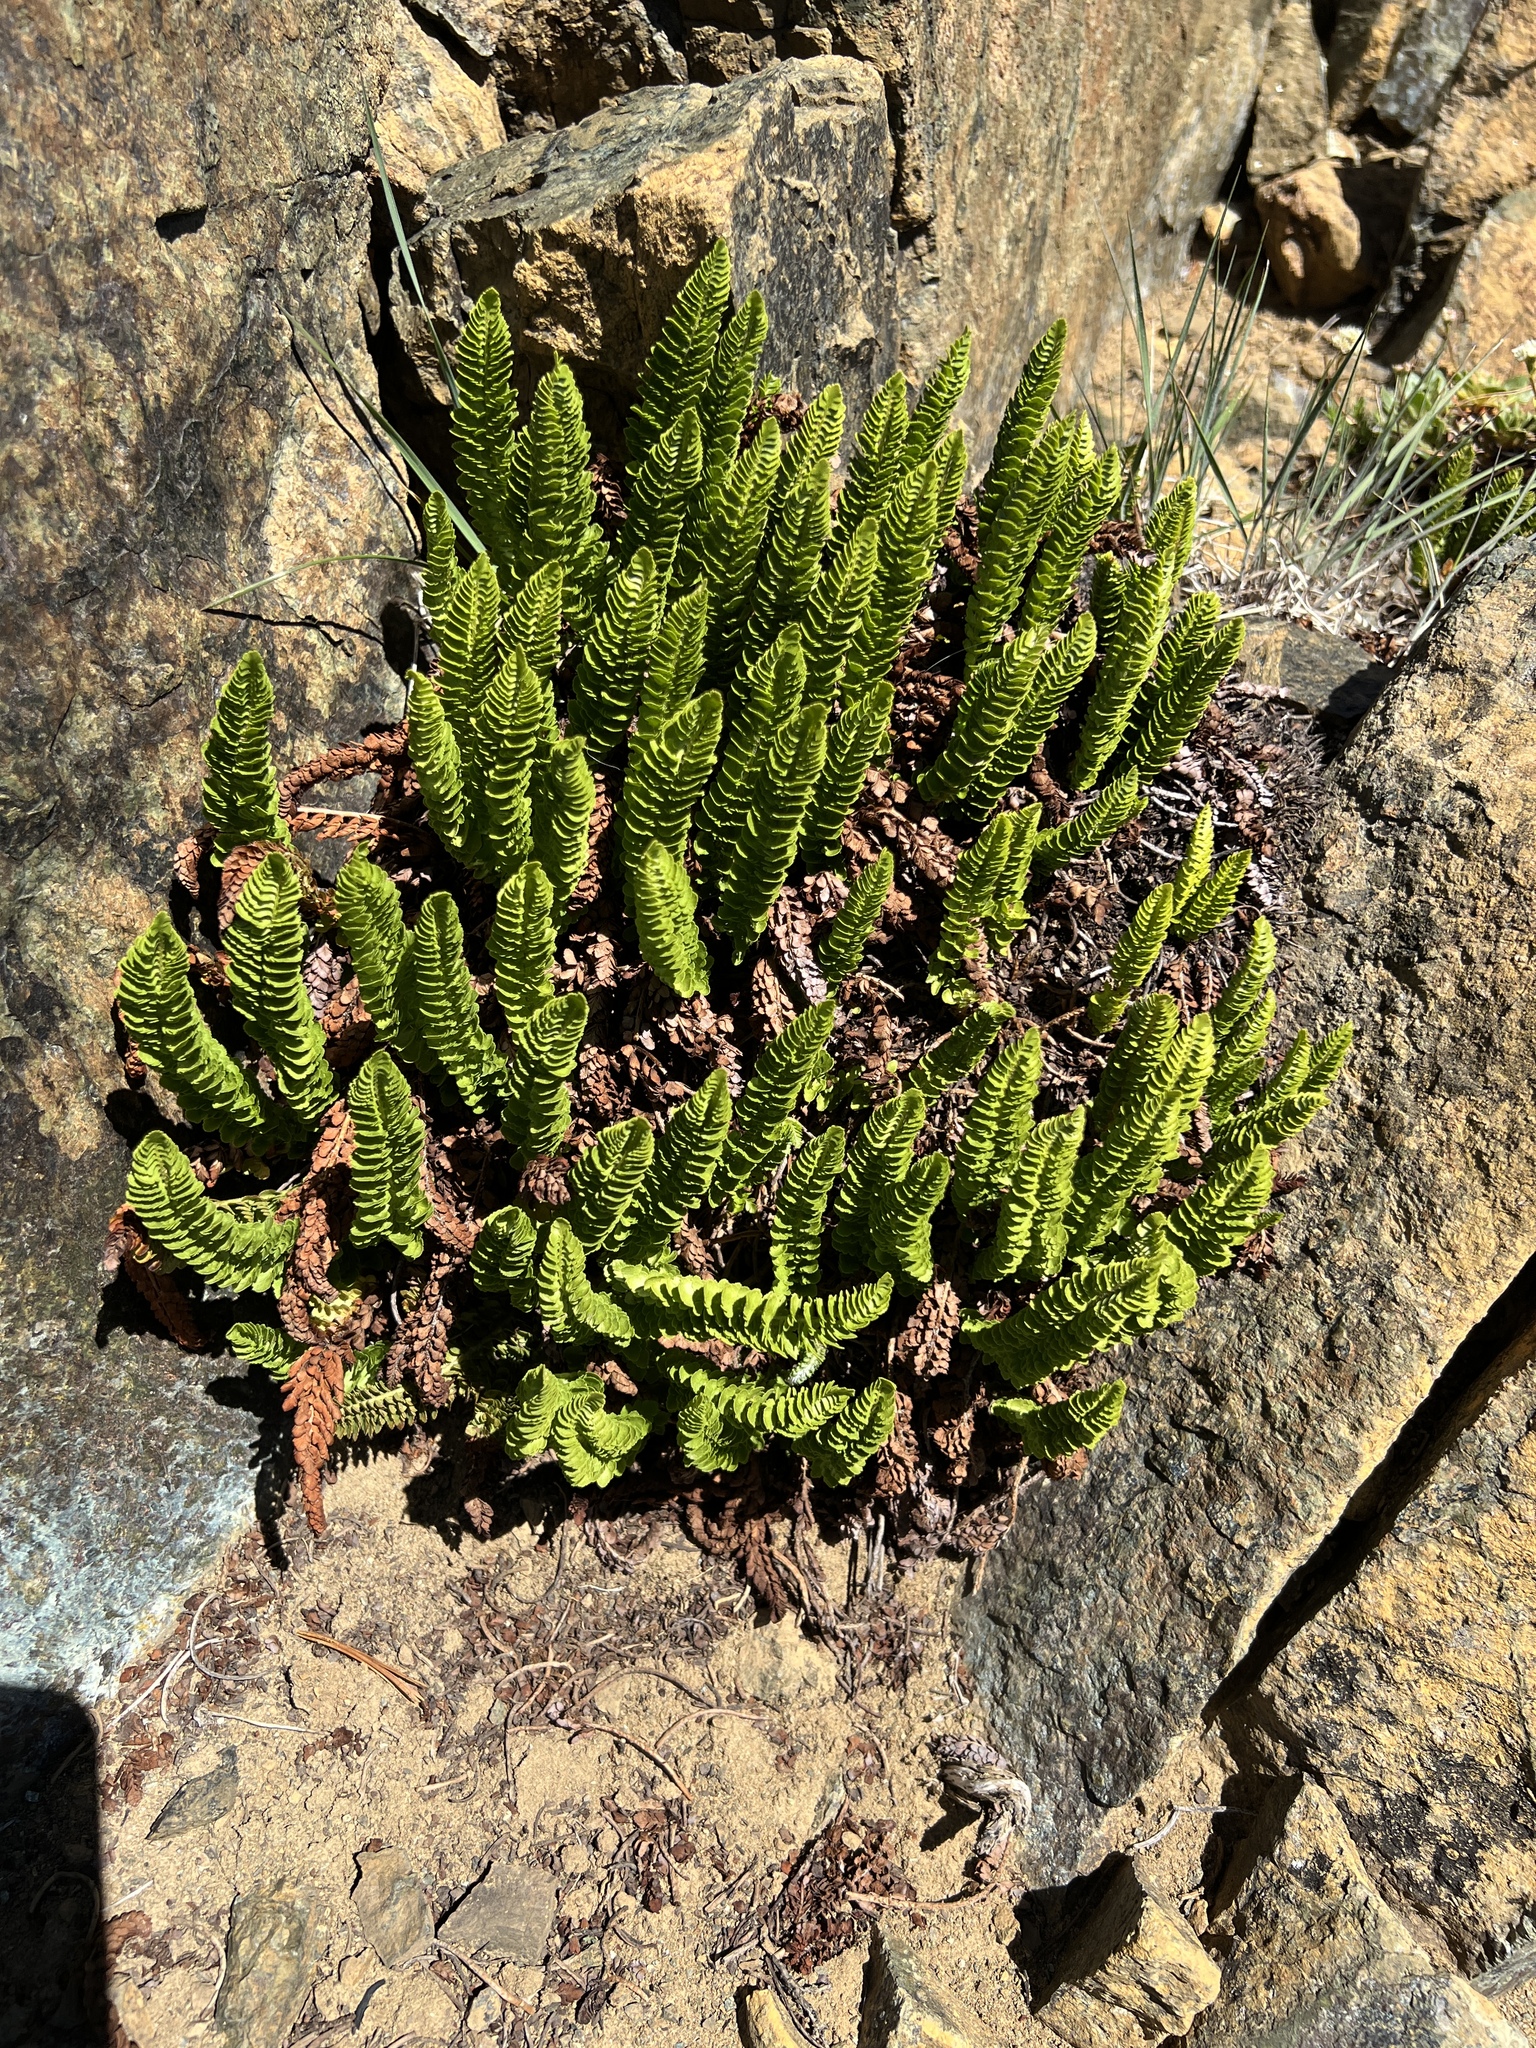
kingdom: Plantae
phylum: Tracheophyta
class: Polypodiopsida
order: Polypodiales
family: Dryopteridaceae
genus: Polystichum
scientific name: Polystichum lemmonii
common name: Lemmon's holly fern
